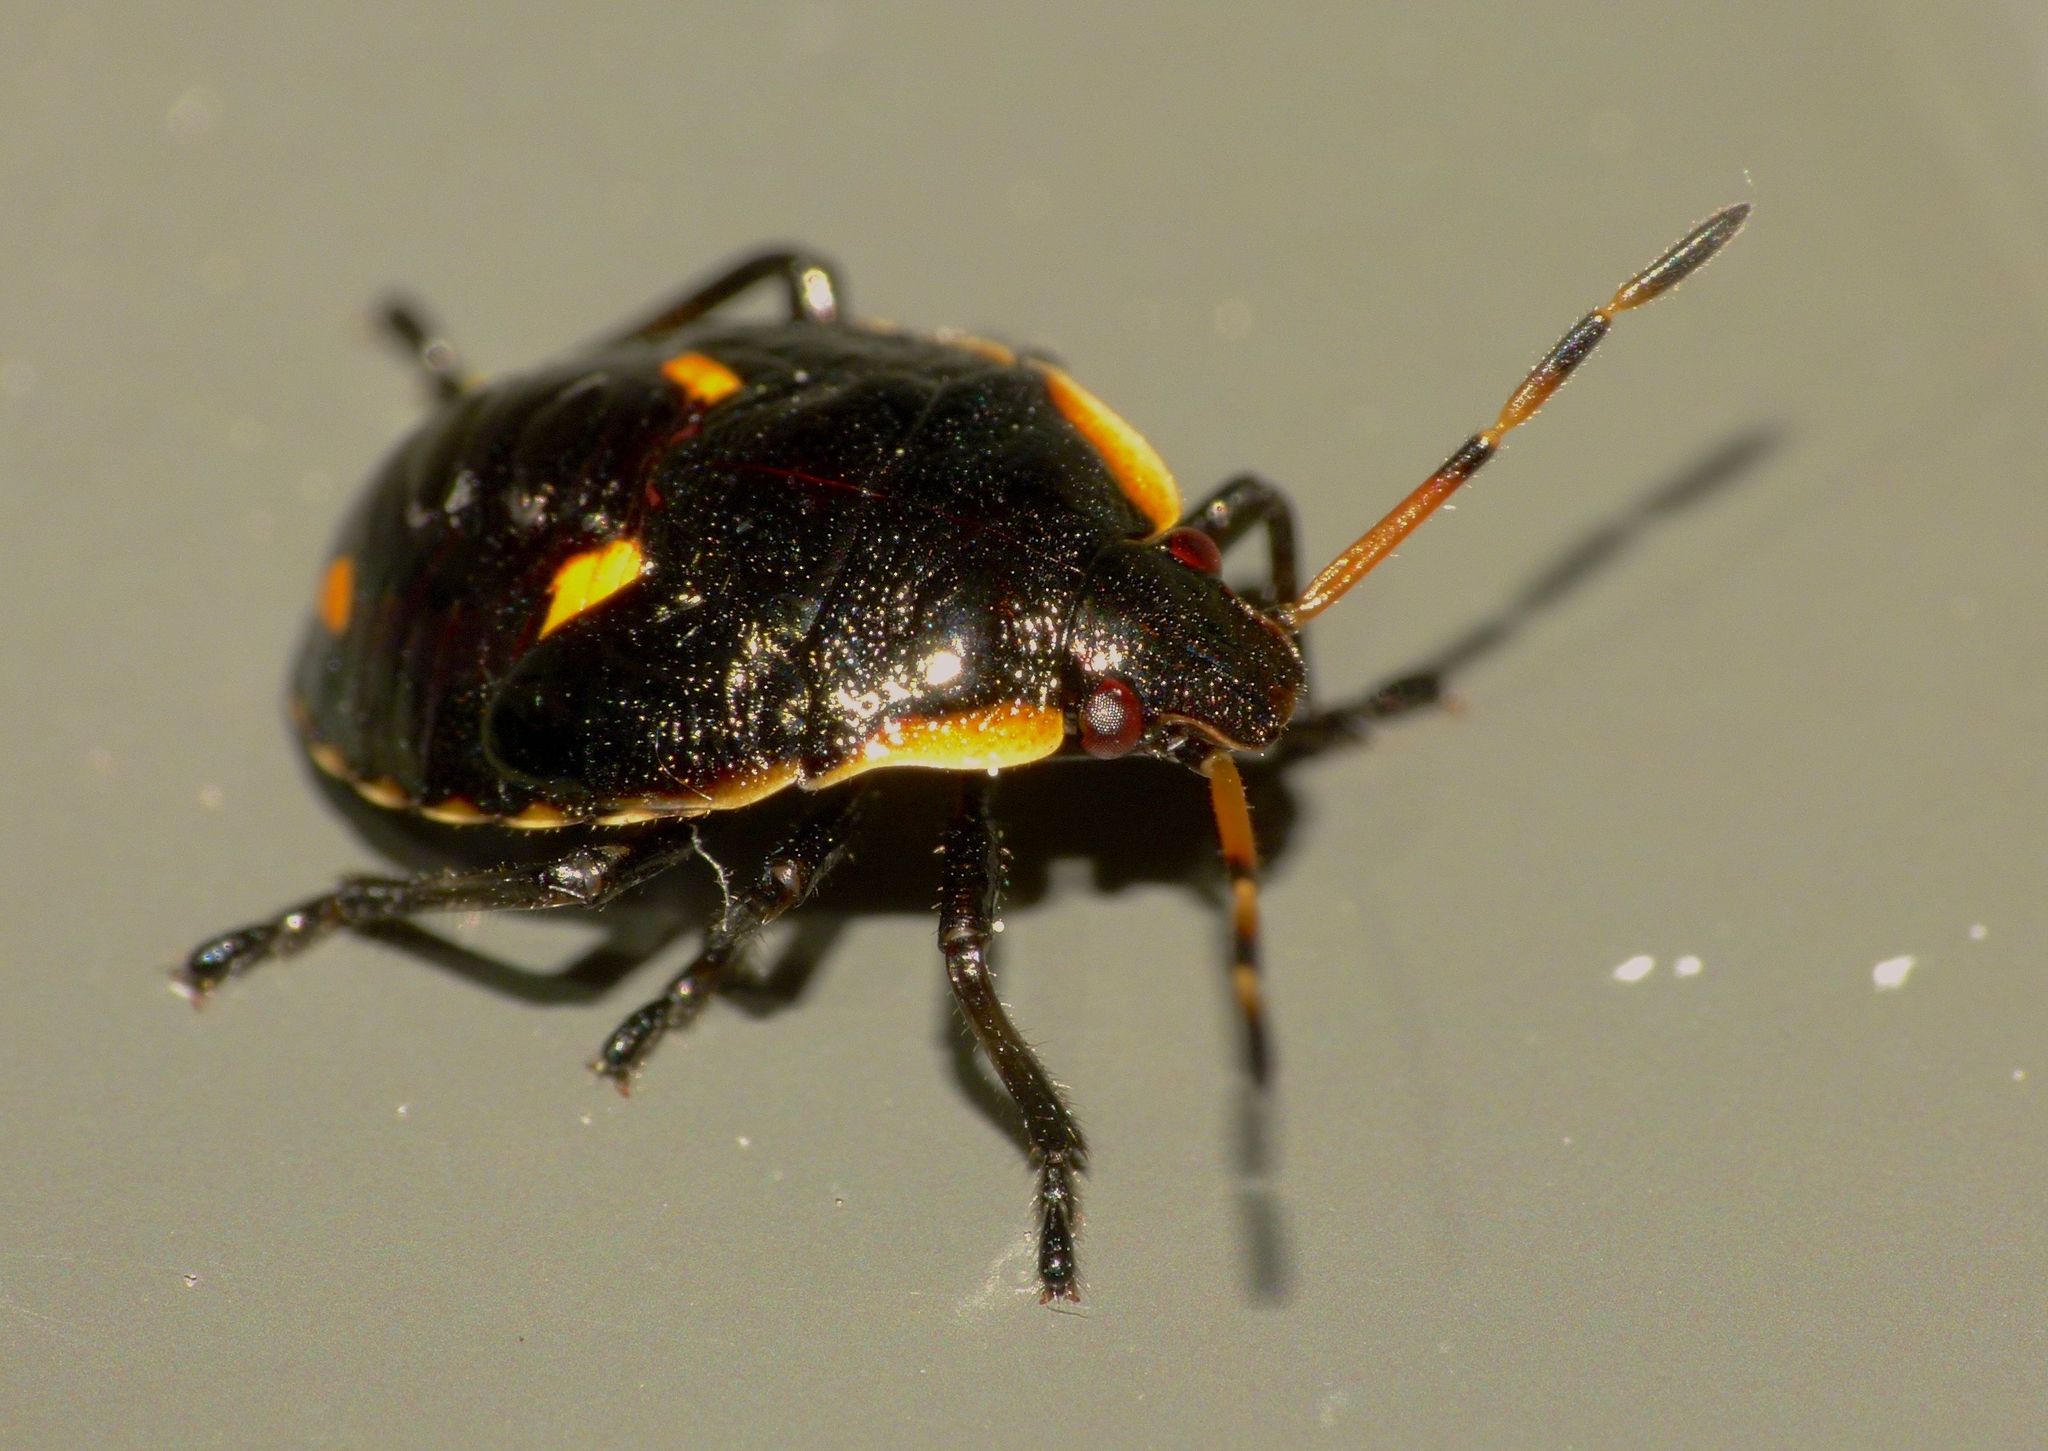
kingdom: Animalia
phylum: Arthropoda
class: Insecta
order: Hemiptera
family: Pentatomidae
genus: Cermatulus
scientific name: Cermatulus nasalis
